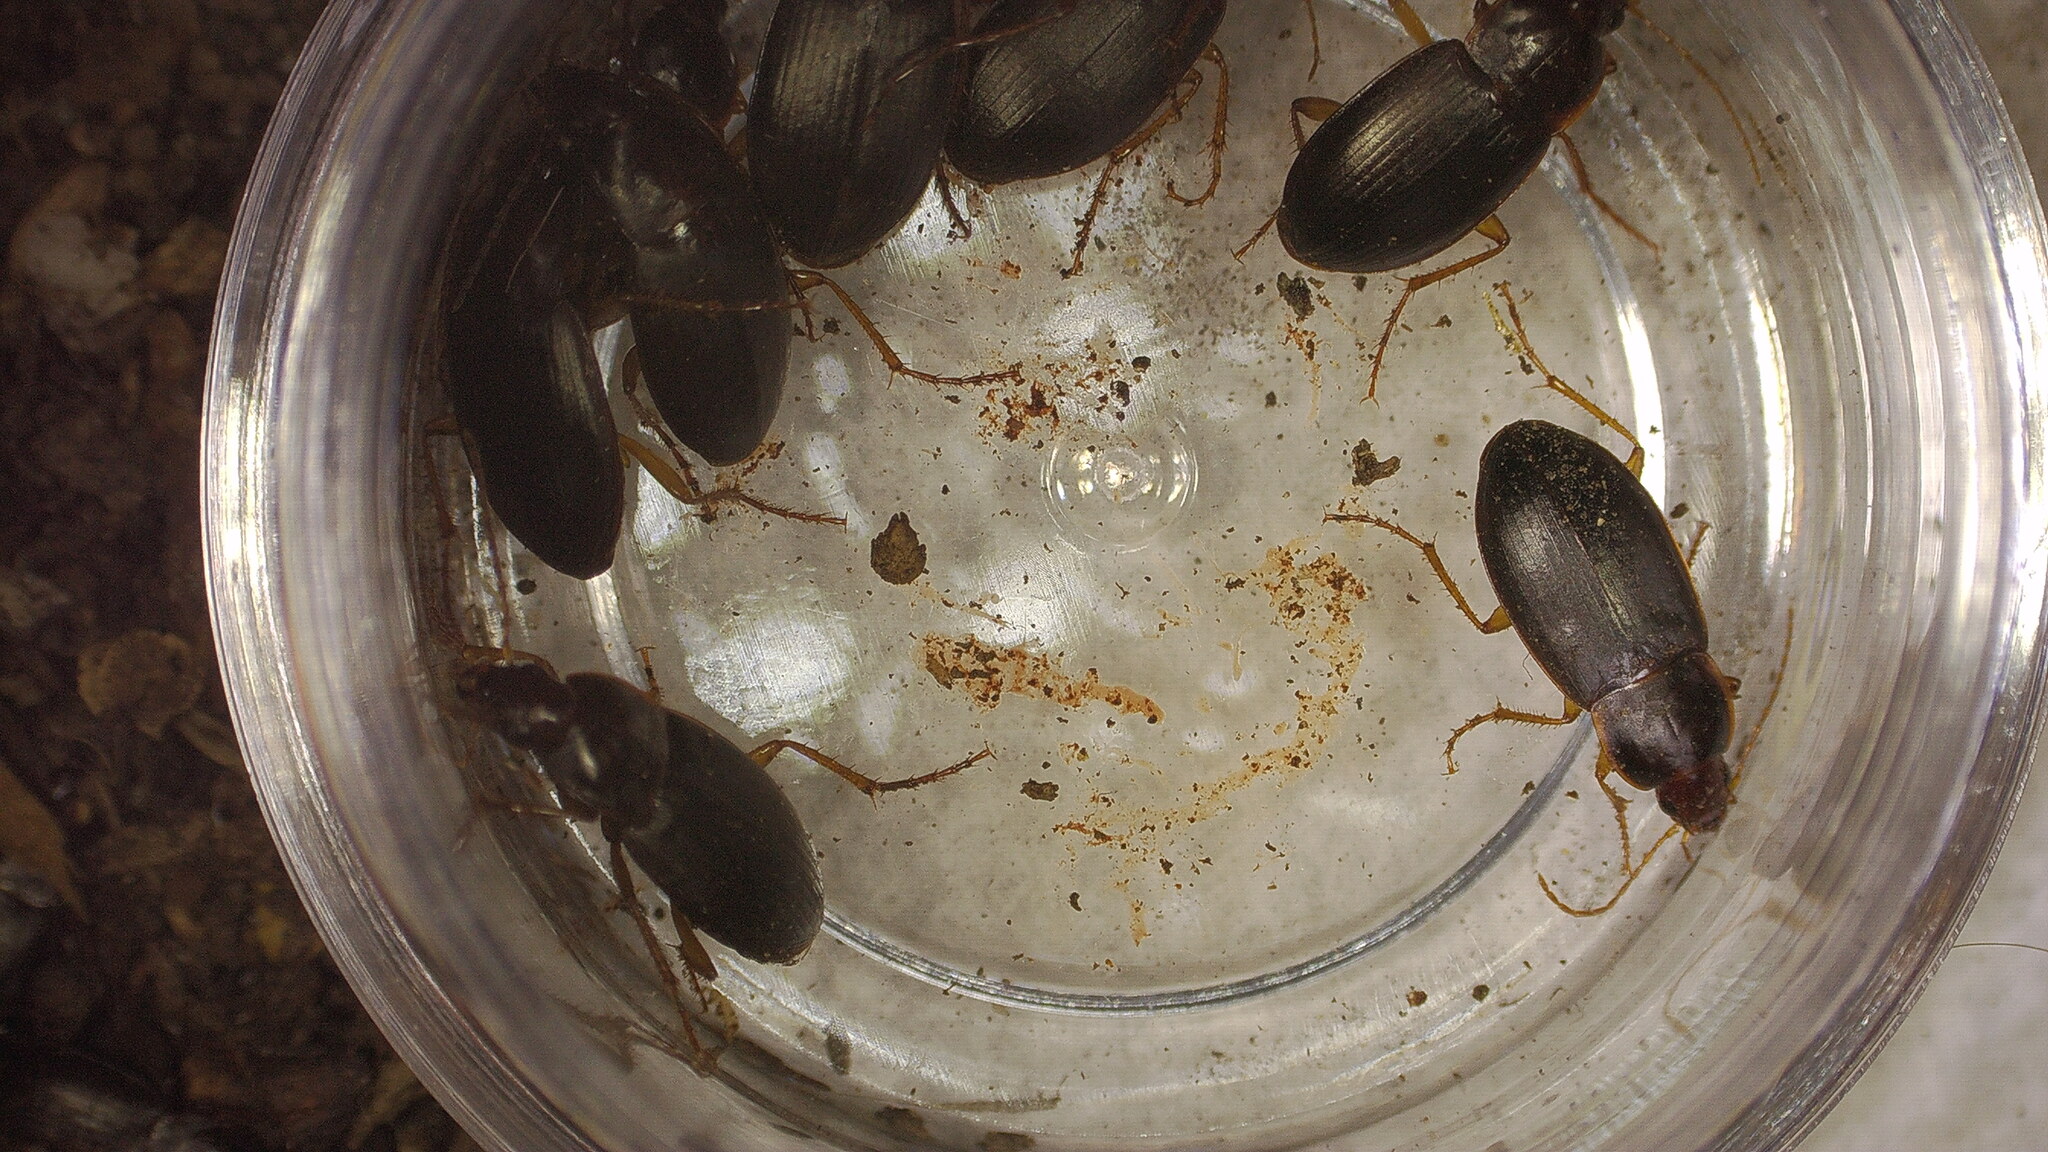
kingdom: Animalia
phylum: Arthropoda
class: Insecta
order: Coleoptera
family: Carabidae
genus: Calathus
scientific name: Calathus ruficollis
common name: Red-collared harp ground beetle
